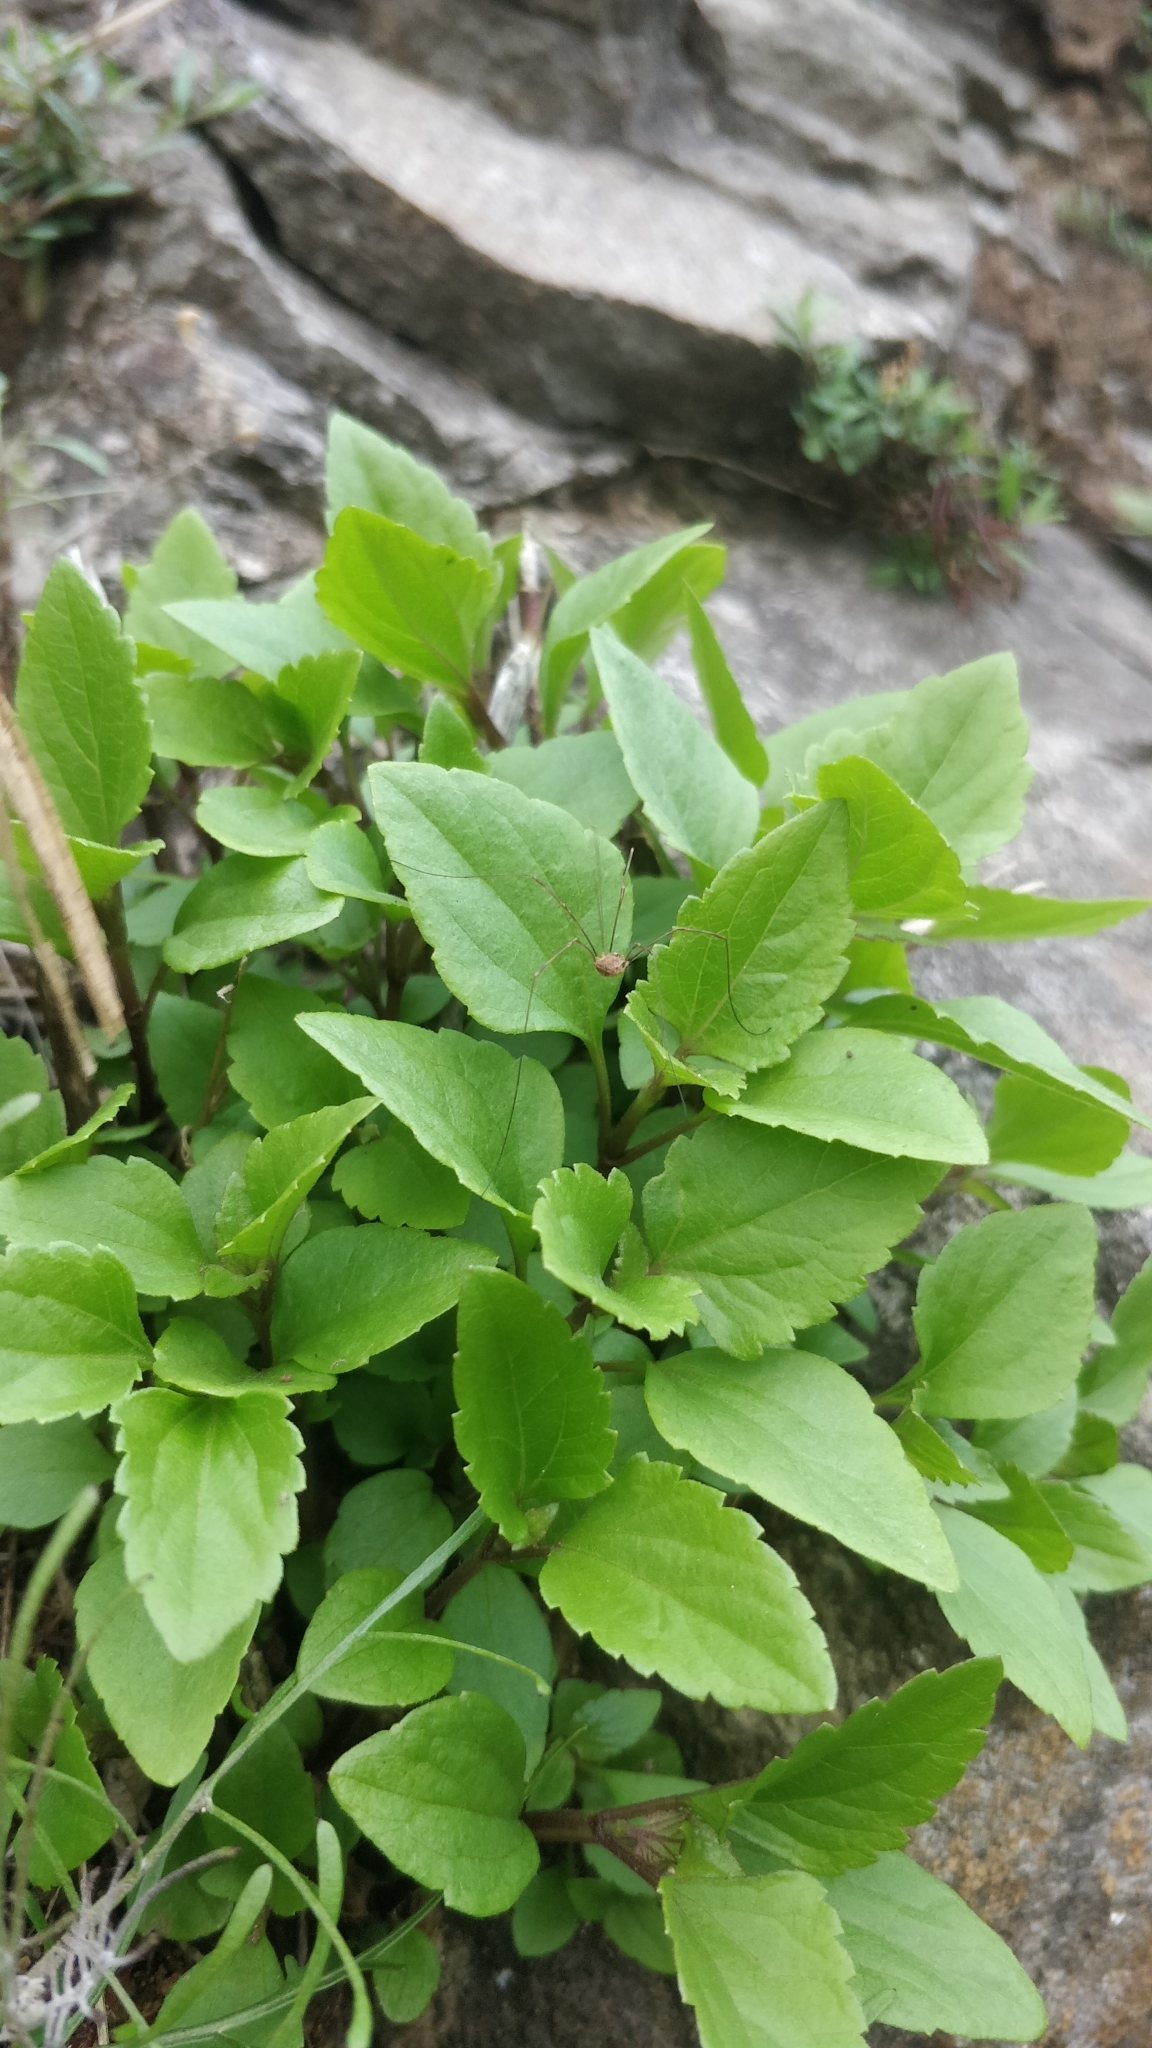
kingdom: Plantae
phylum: Tracheophyta
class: Magnoliopsida
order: Asterales
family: Asteraceae
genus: Ageratina
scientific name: Ageratina adenophora
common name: Sticky snakeroot
